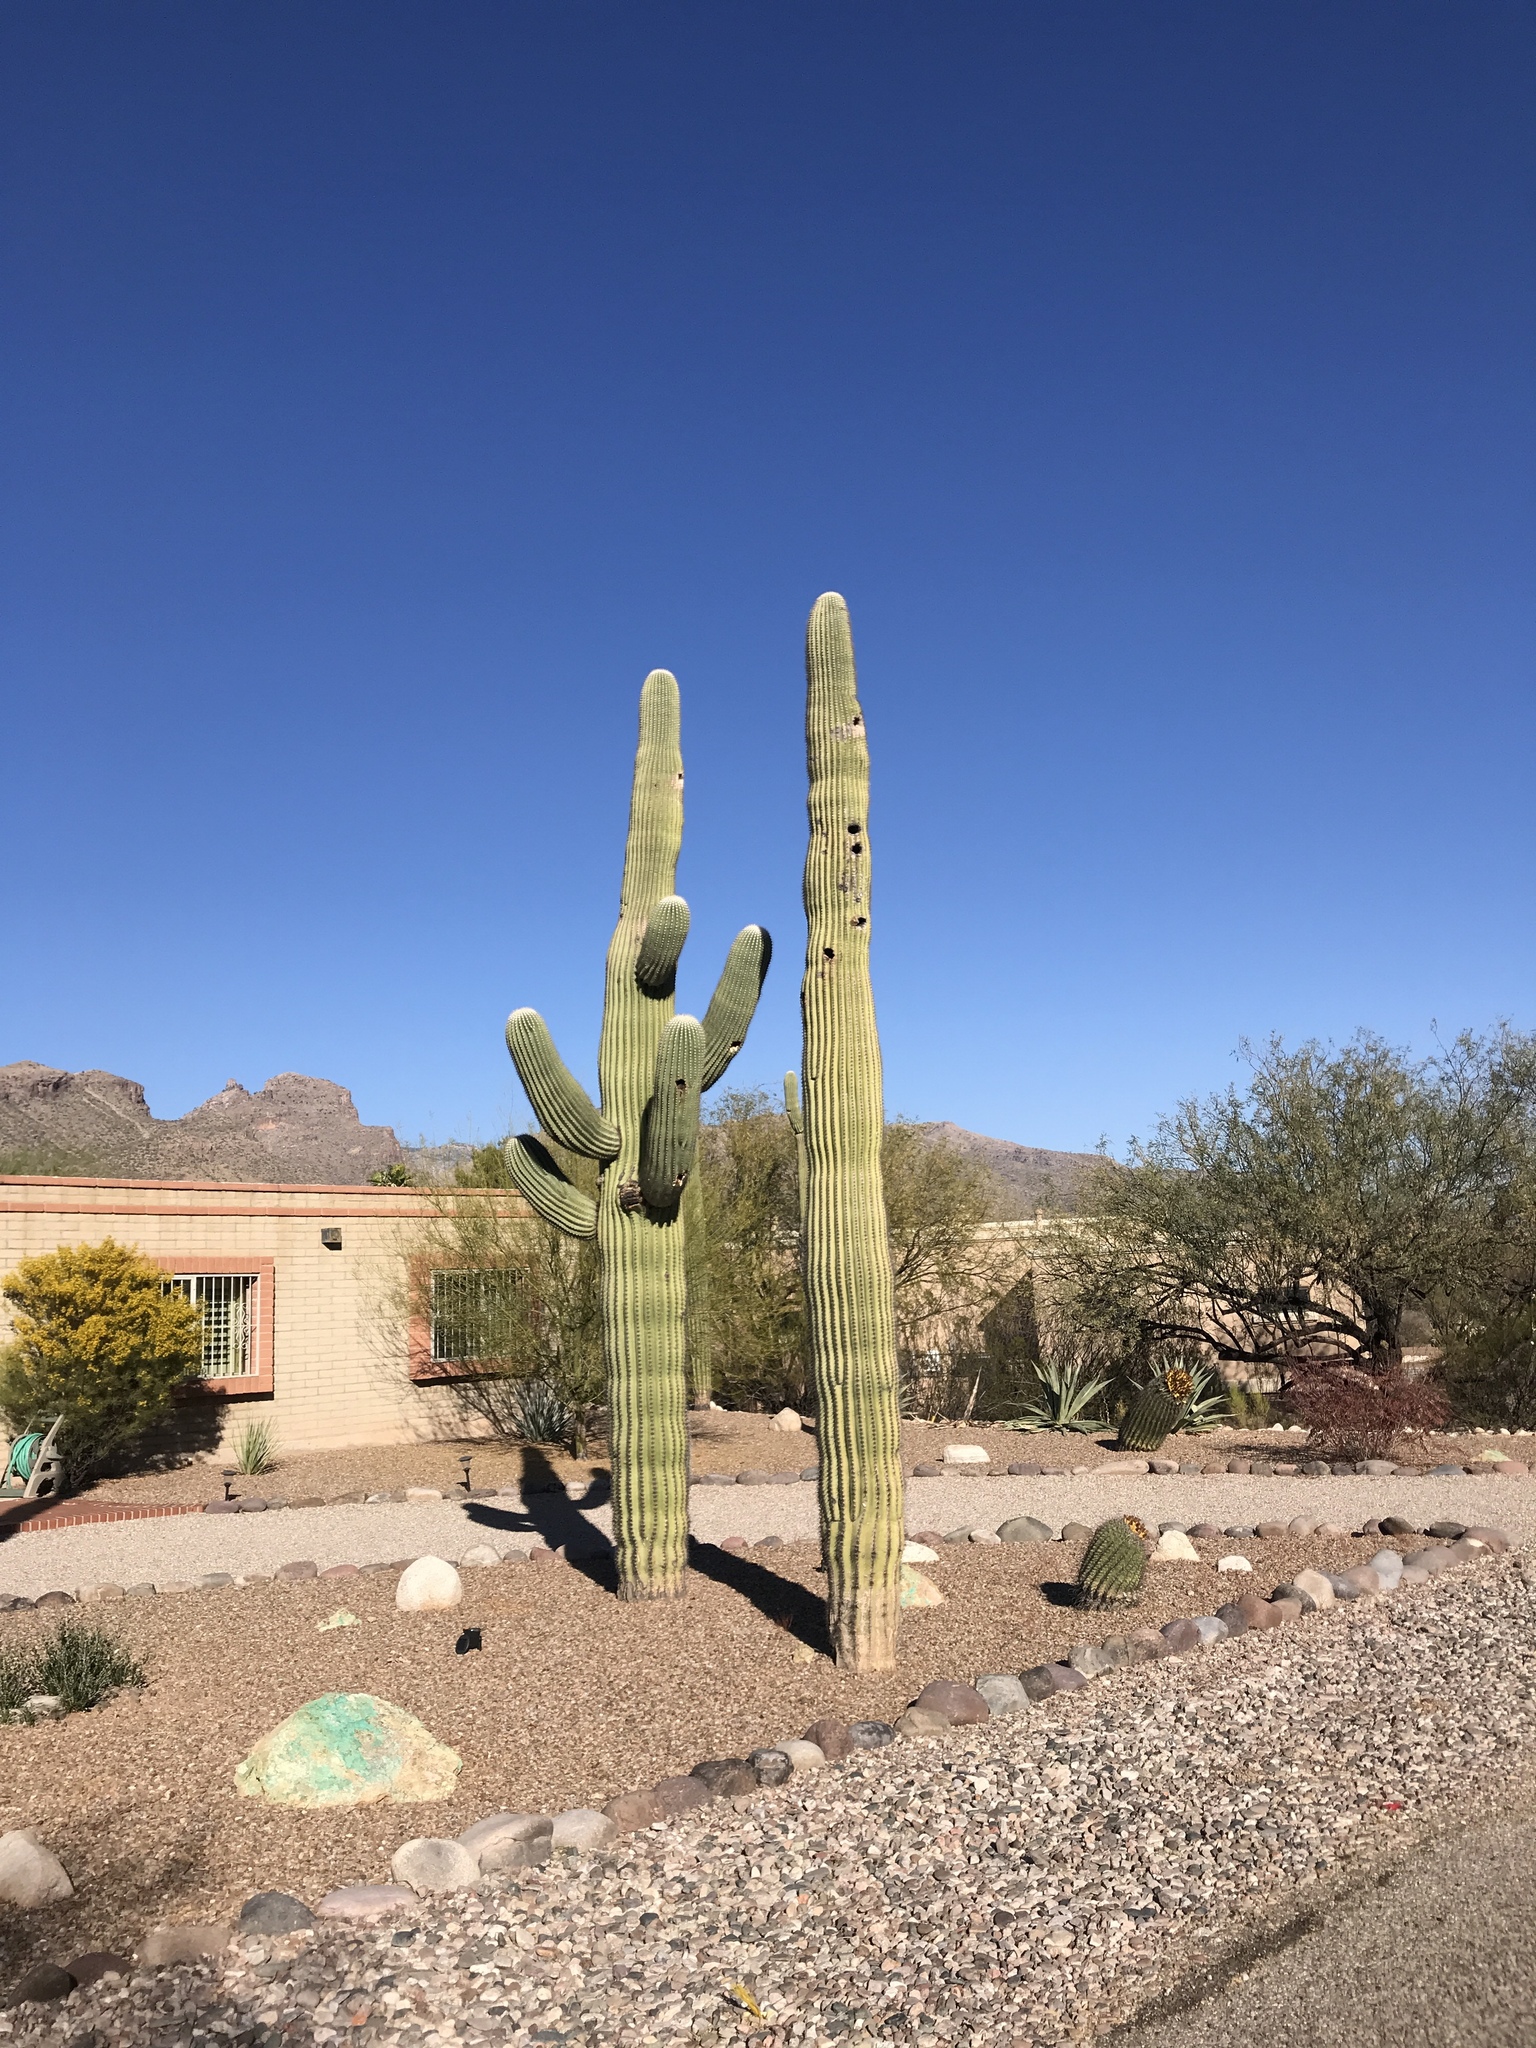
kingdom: Plantae
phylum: Tracheophyta
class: Magnoliopsida
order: Caryophyllales
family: Cactaceae
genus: Carnegiea
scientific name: Carnegiea gigantea
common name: Saguaro
